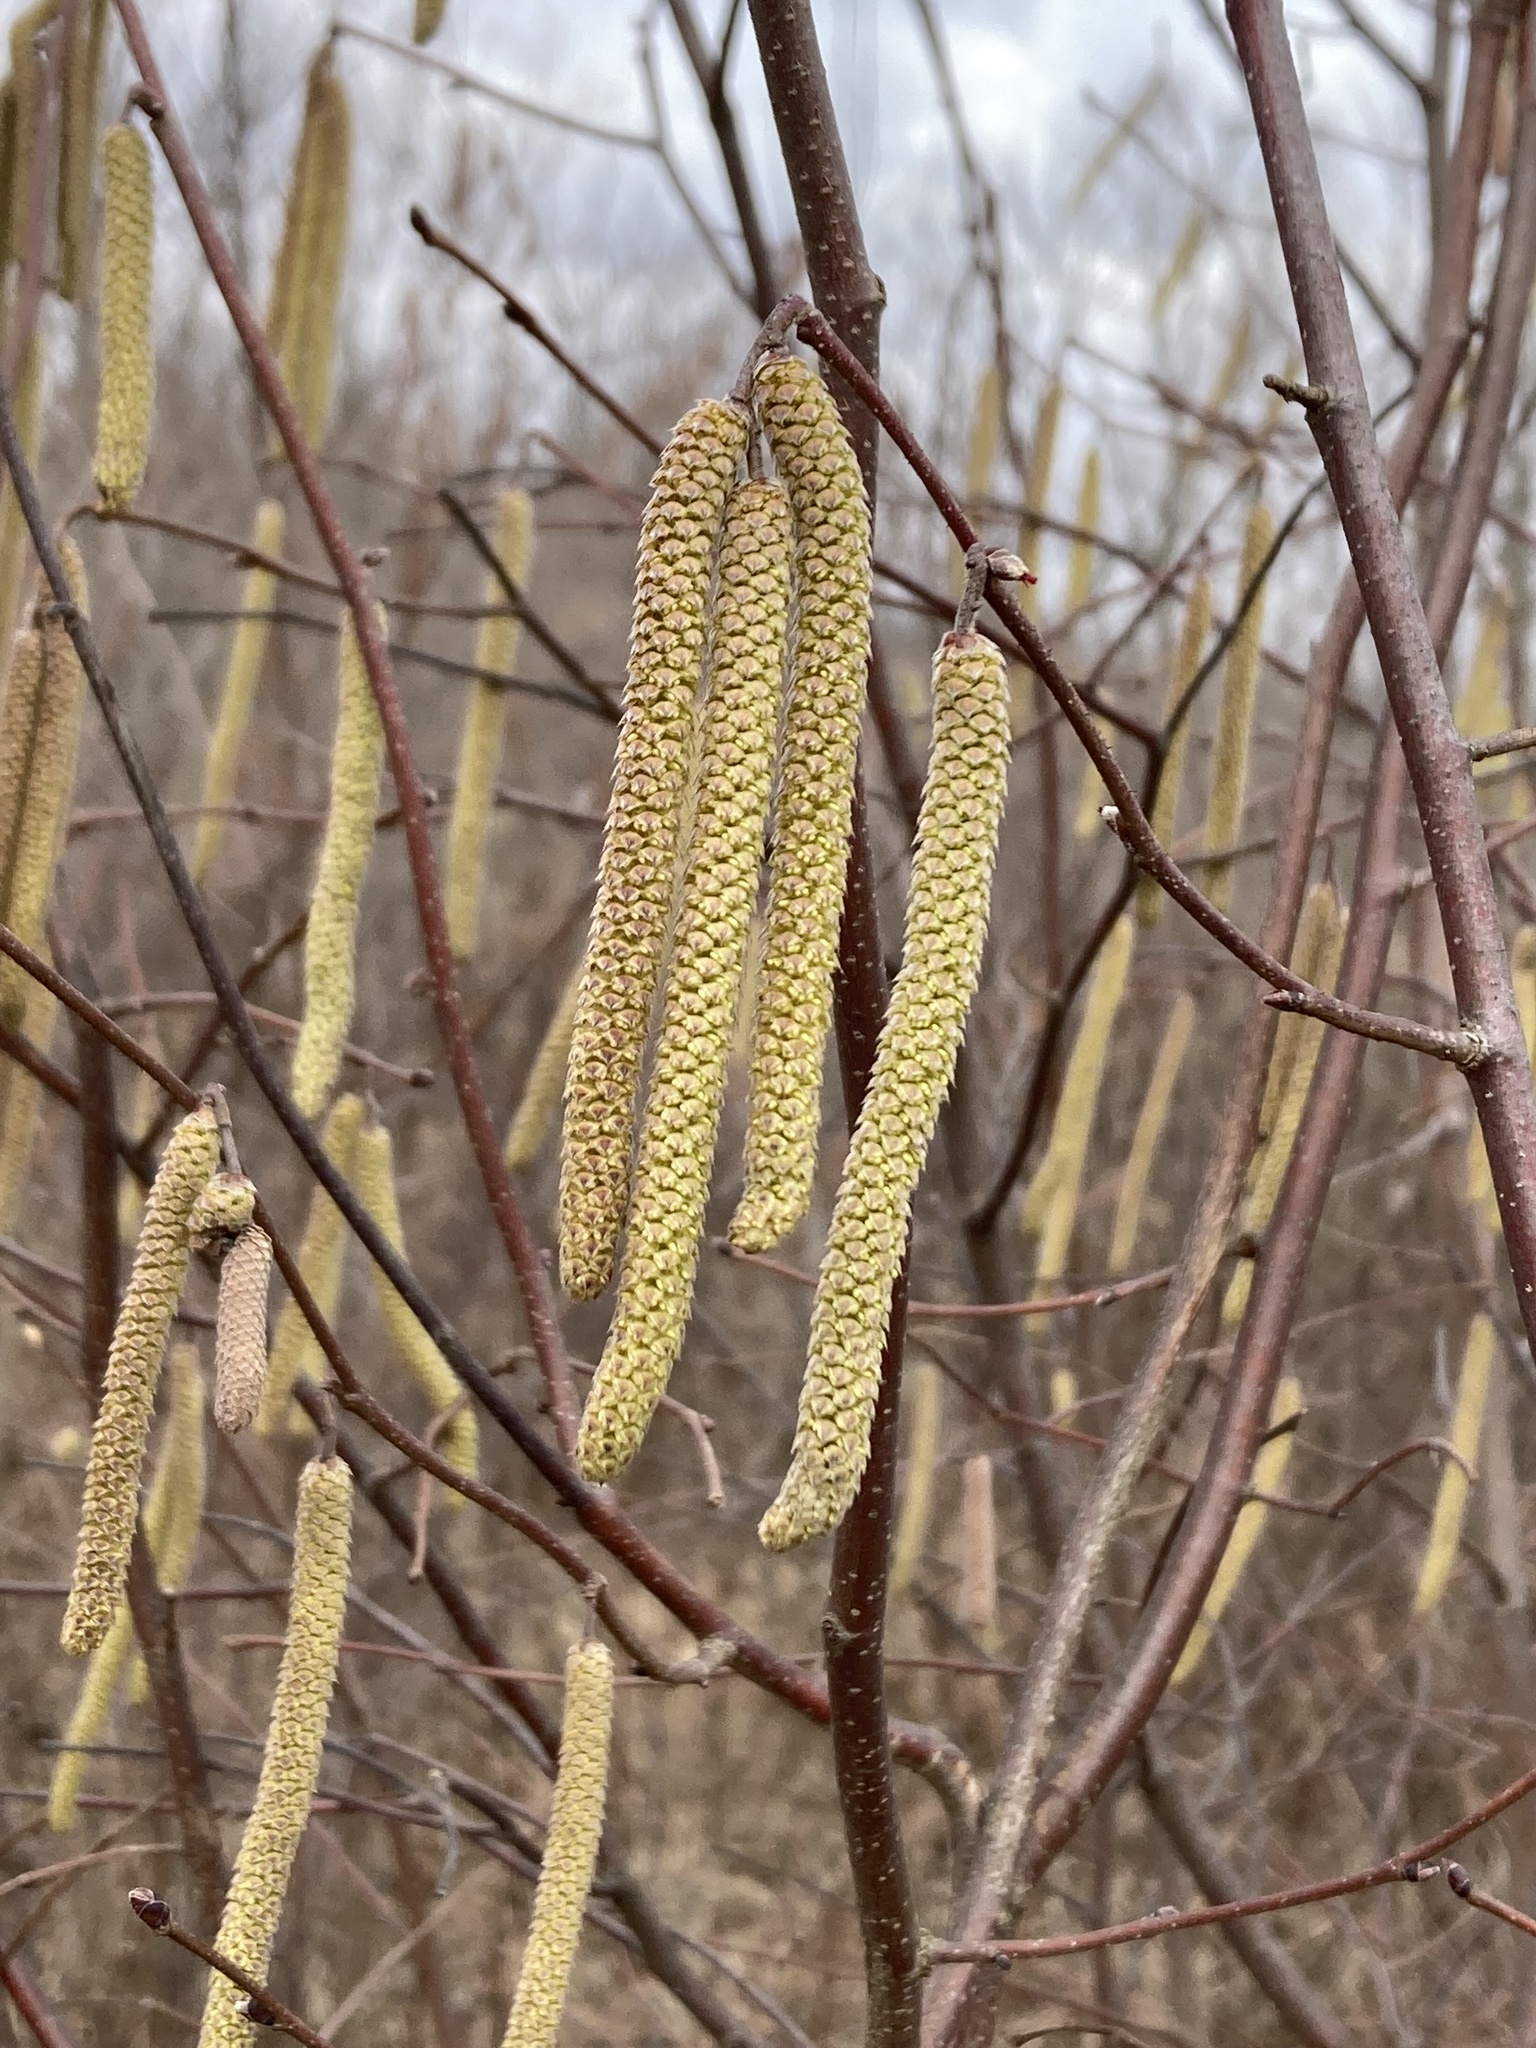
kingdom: Plantae
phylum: Tracheophyta
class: Magnoliopsida
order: Fagales
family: Betulaceae
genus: Corylus
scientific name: Corylus americana
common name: American hazel
